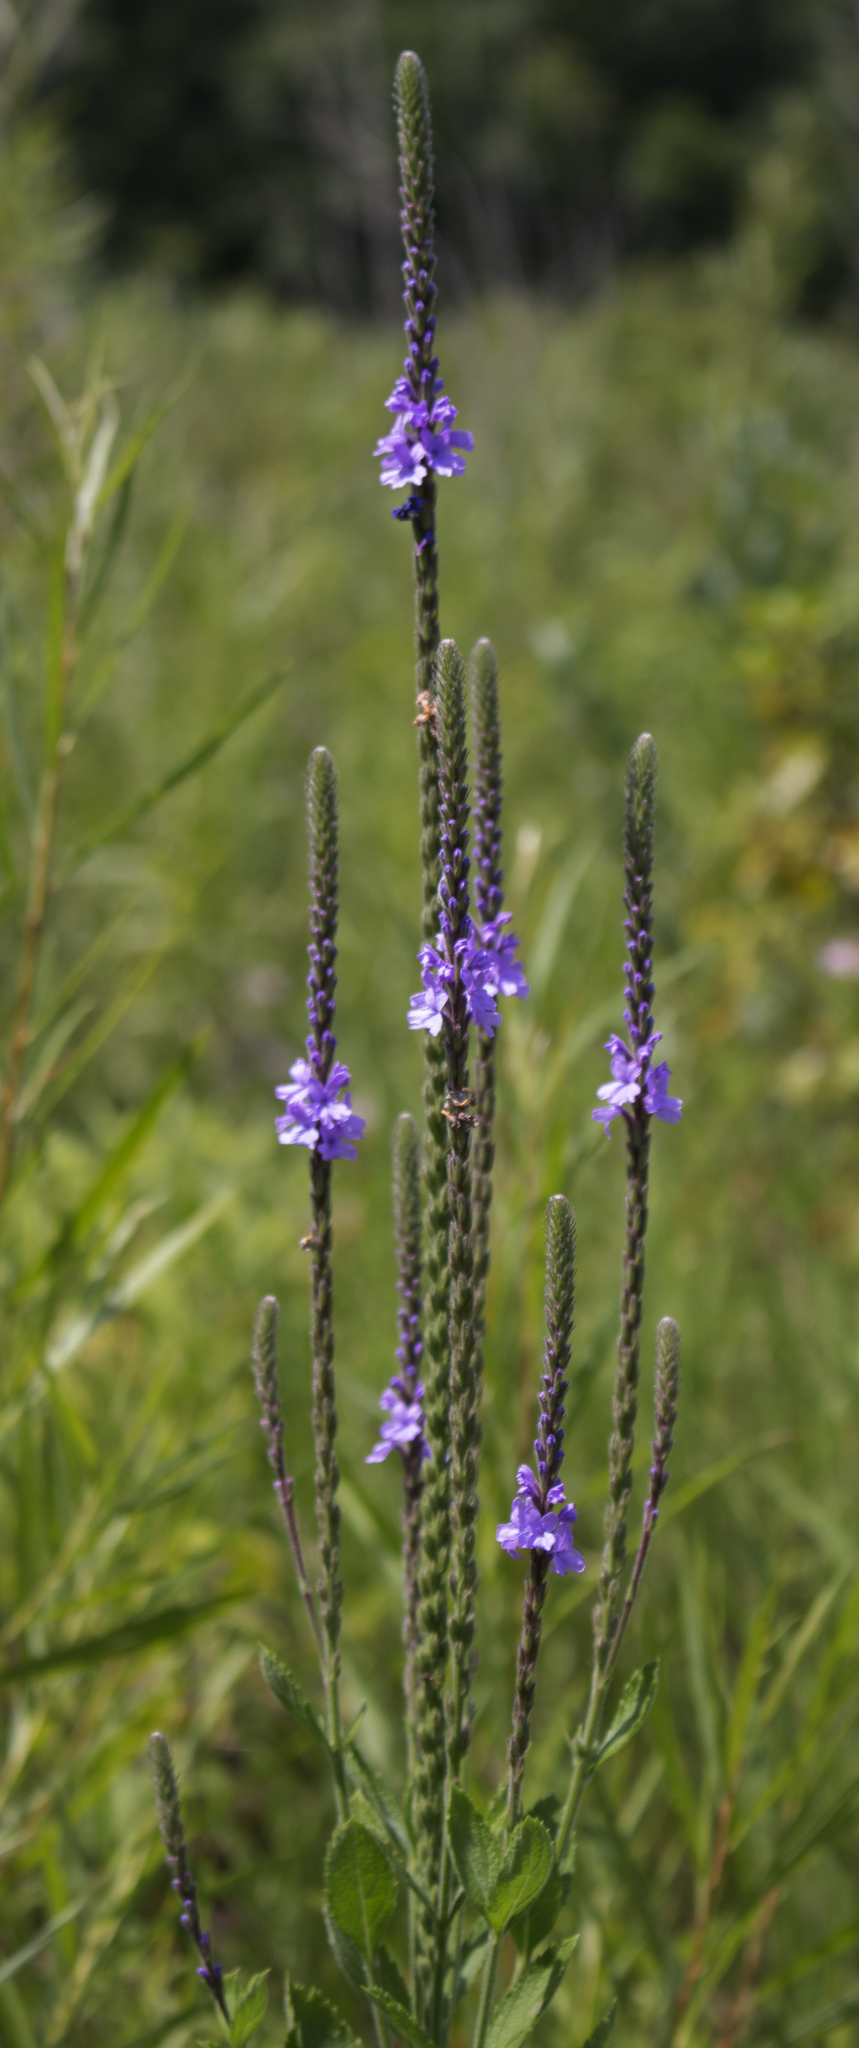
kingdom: Plantae
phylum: Tracheophyta
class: Magnoliopsida
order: Lamiales
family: Verbenaceae
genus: Verbena
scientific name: Verbena stricta
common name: Hoary vervain
